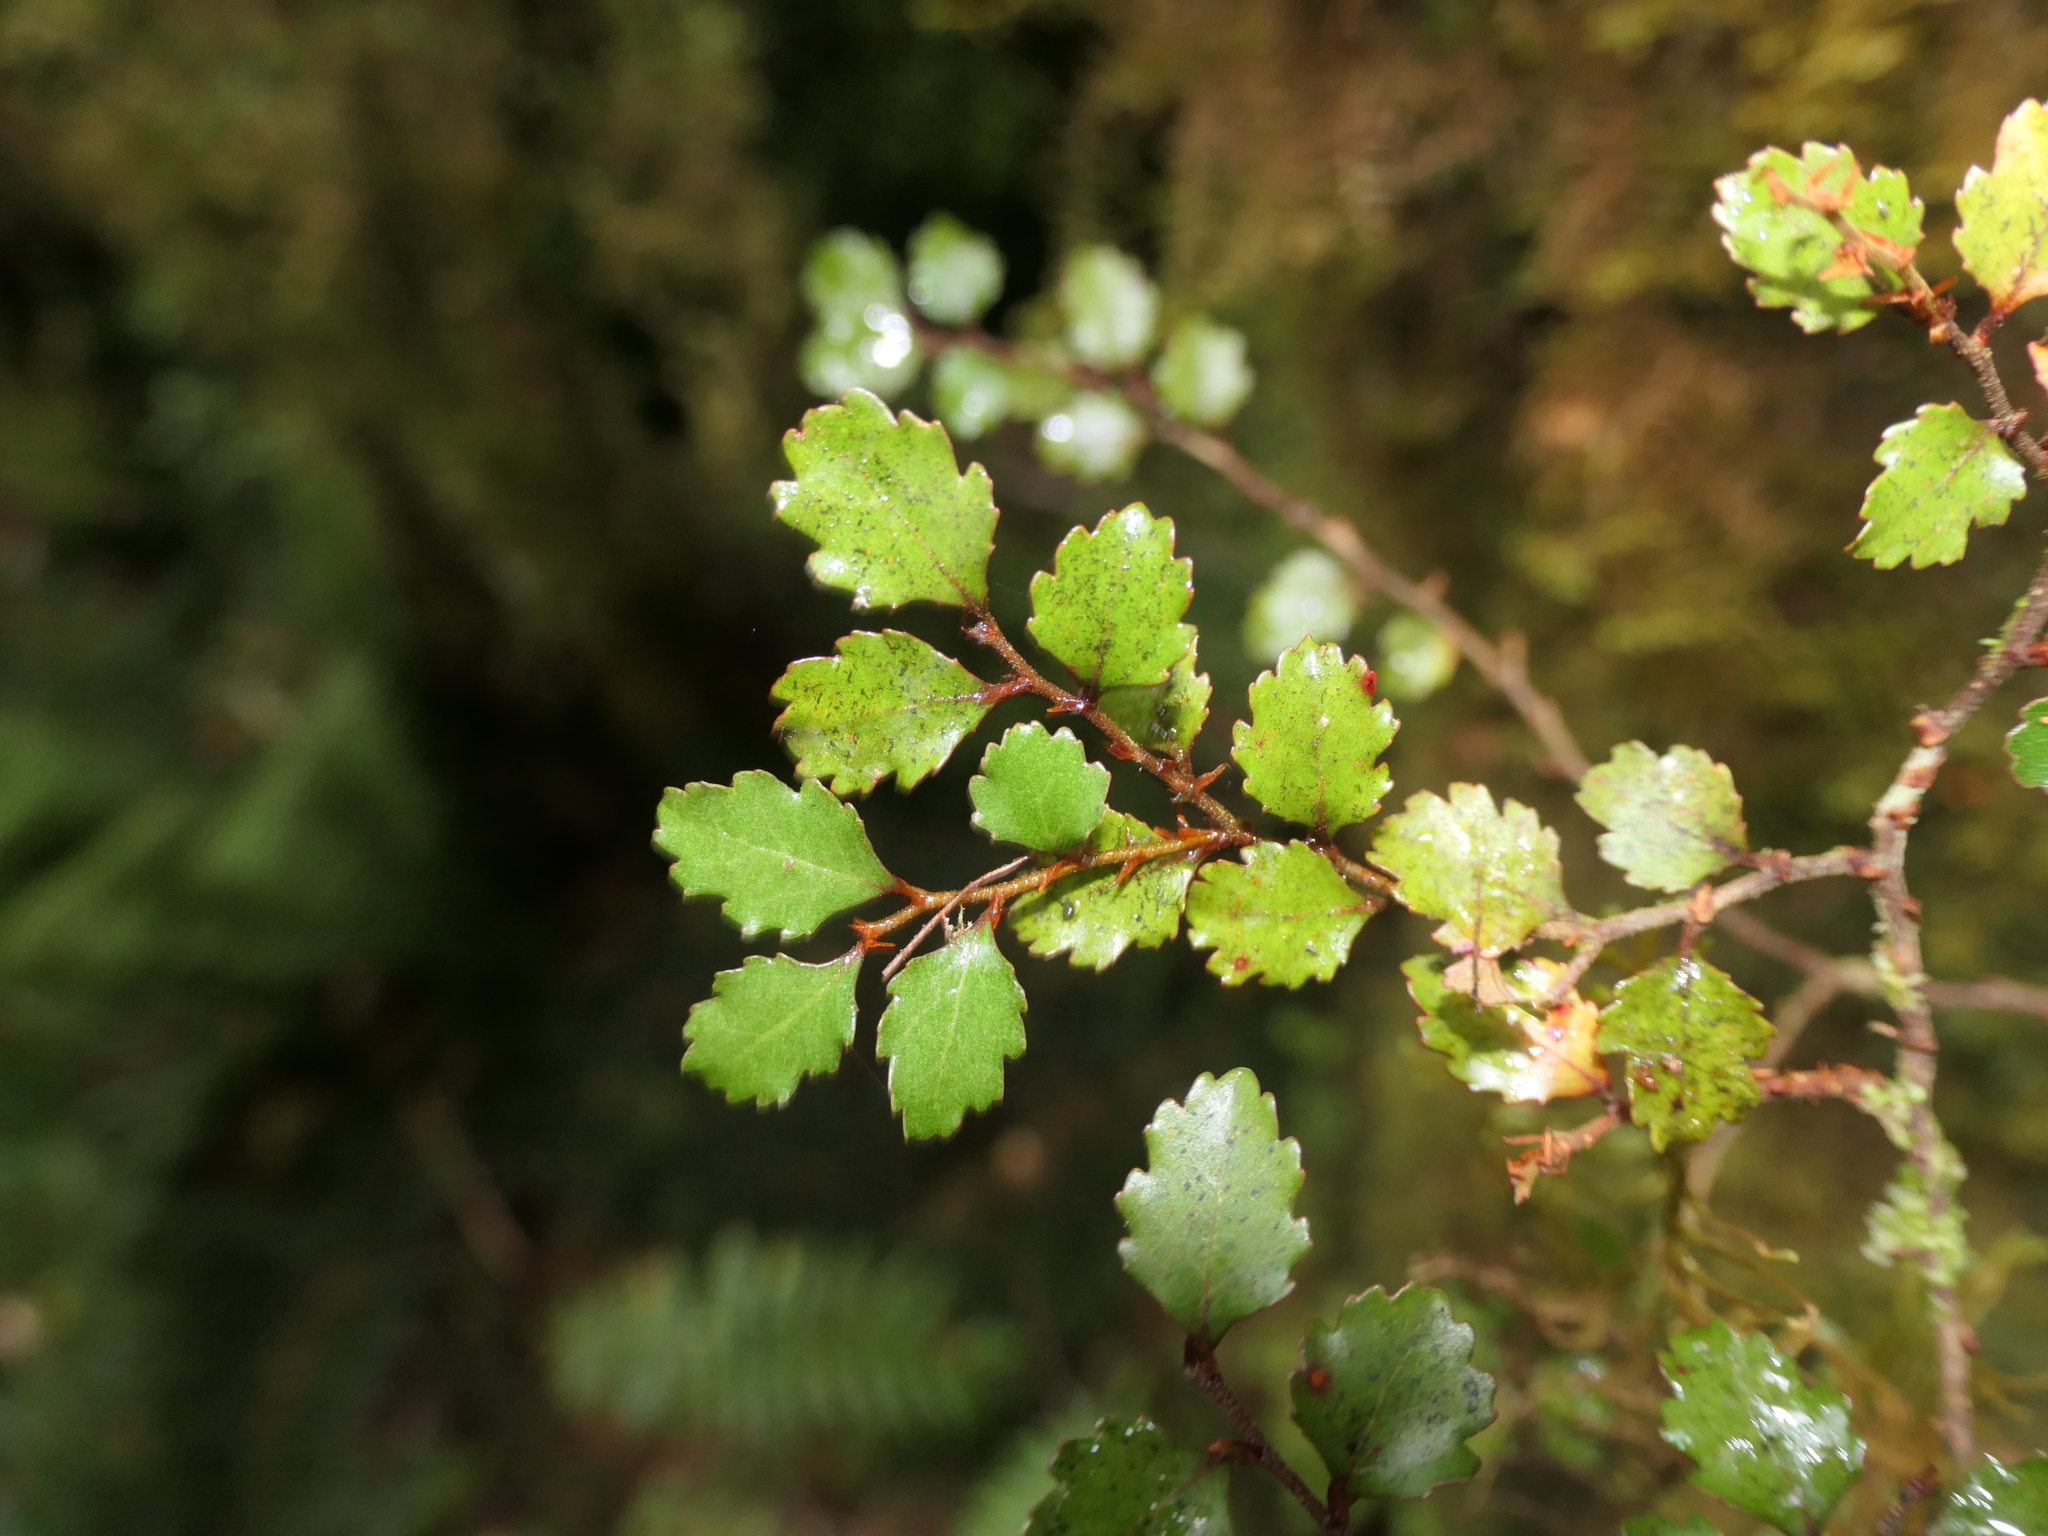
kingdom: Plantae
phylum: Tracheophyta
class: Magnoliopsida
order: Fagales
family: Nothofagaceae
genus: Nothofagus
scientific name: Nothofagus menziesii
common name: Silver beech
